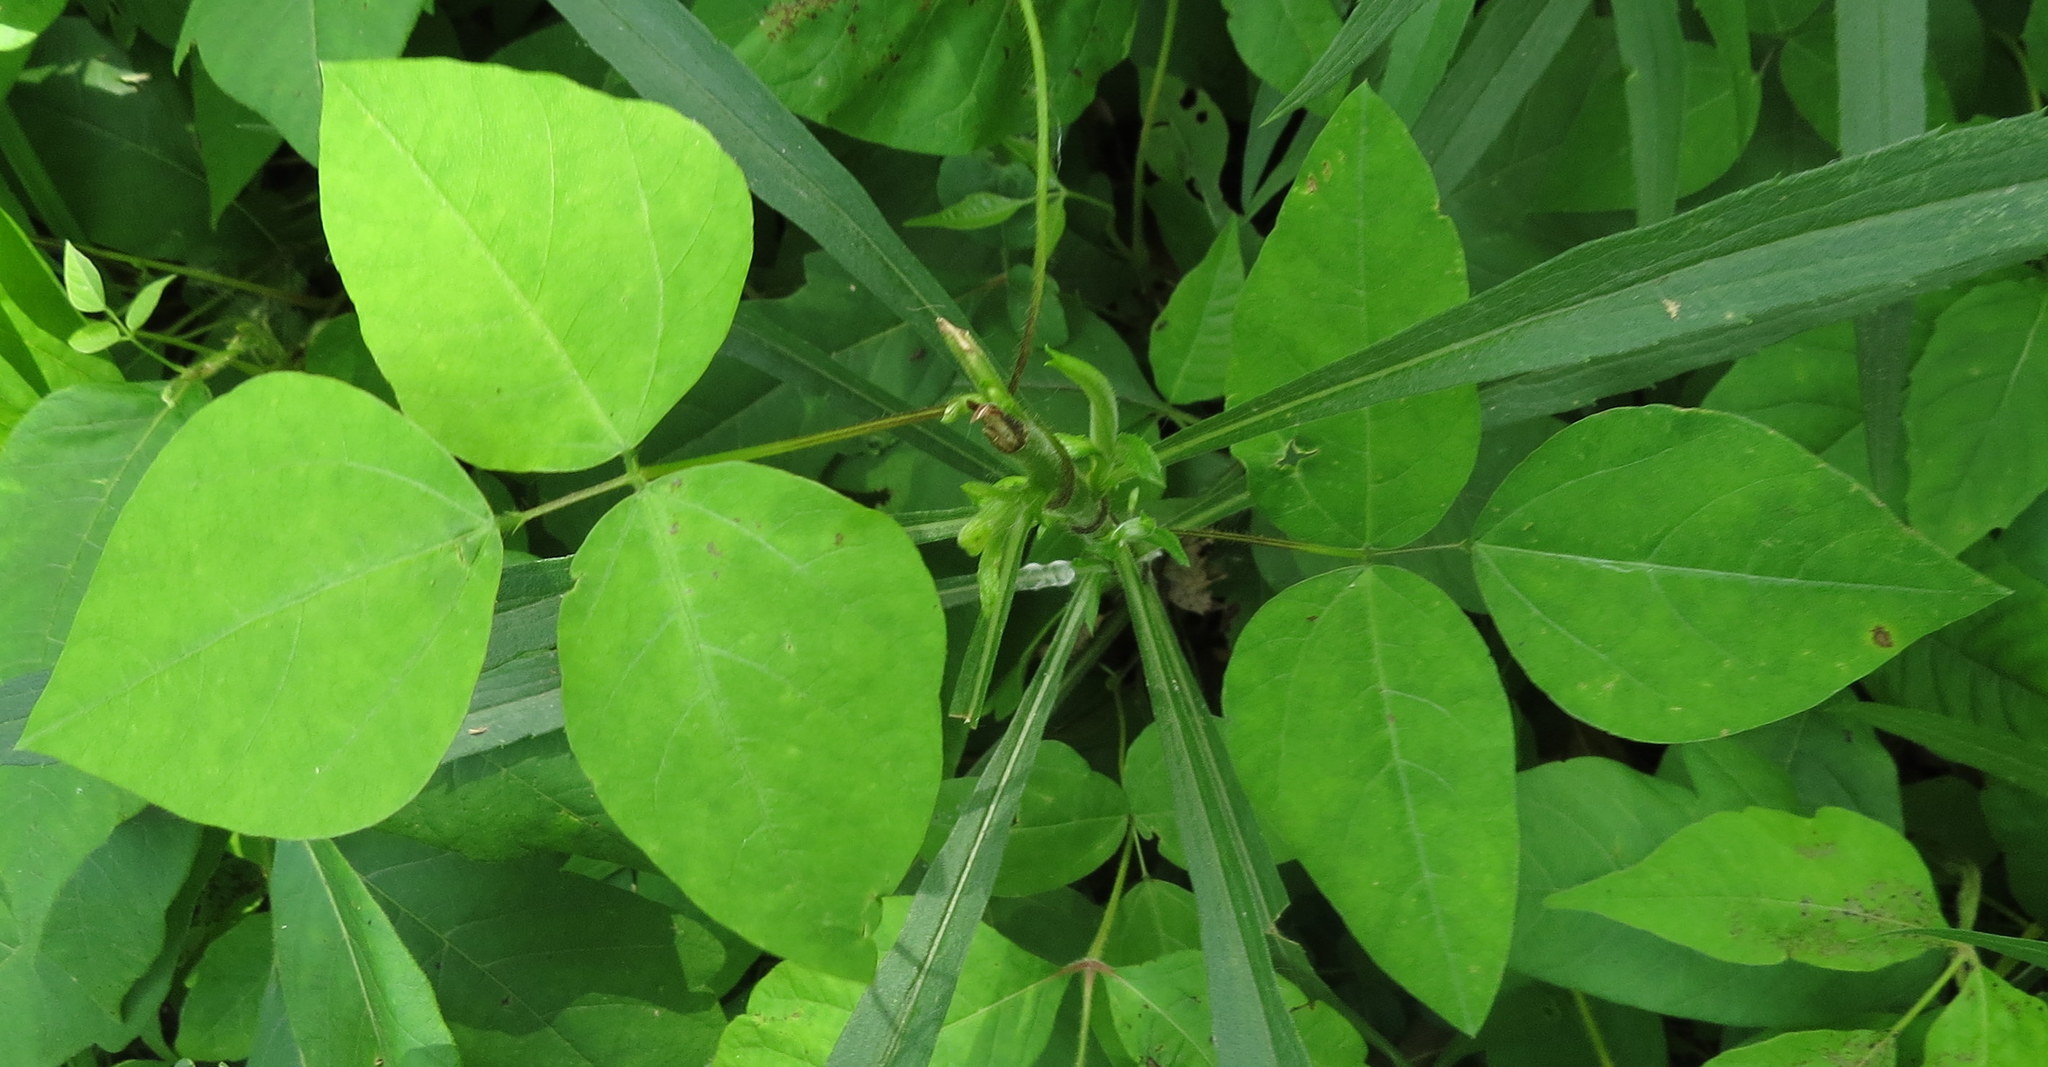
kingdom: Plantae
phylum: Tracheophyta
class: Magnoliopsida
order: Fabales
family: Fabaceae
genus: Amphicarpaea
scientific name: Amphicarpaea bracteata
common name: American hog peanut
